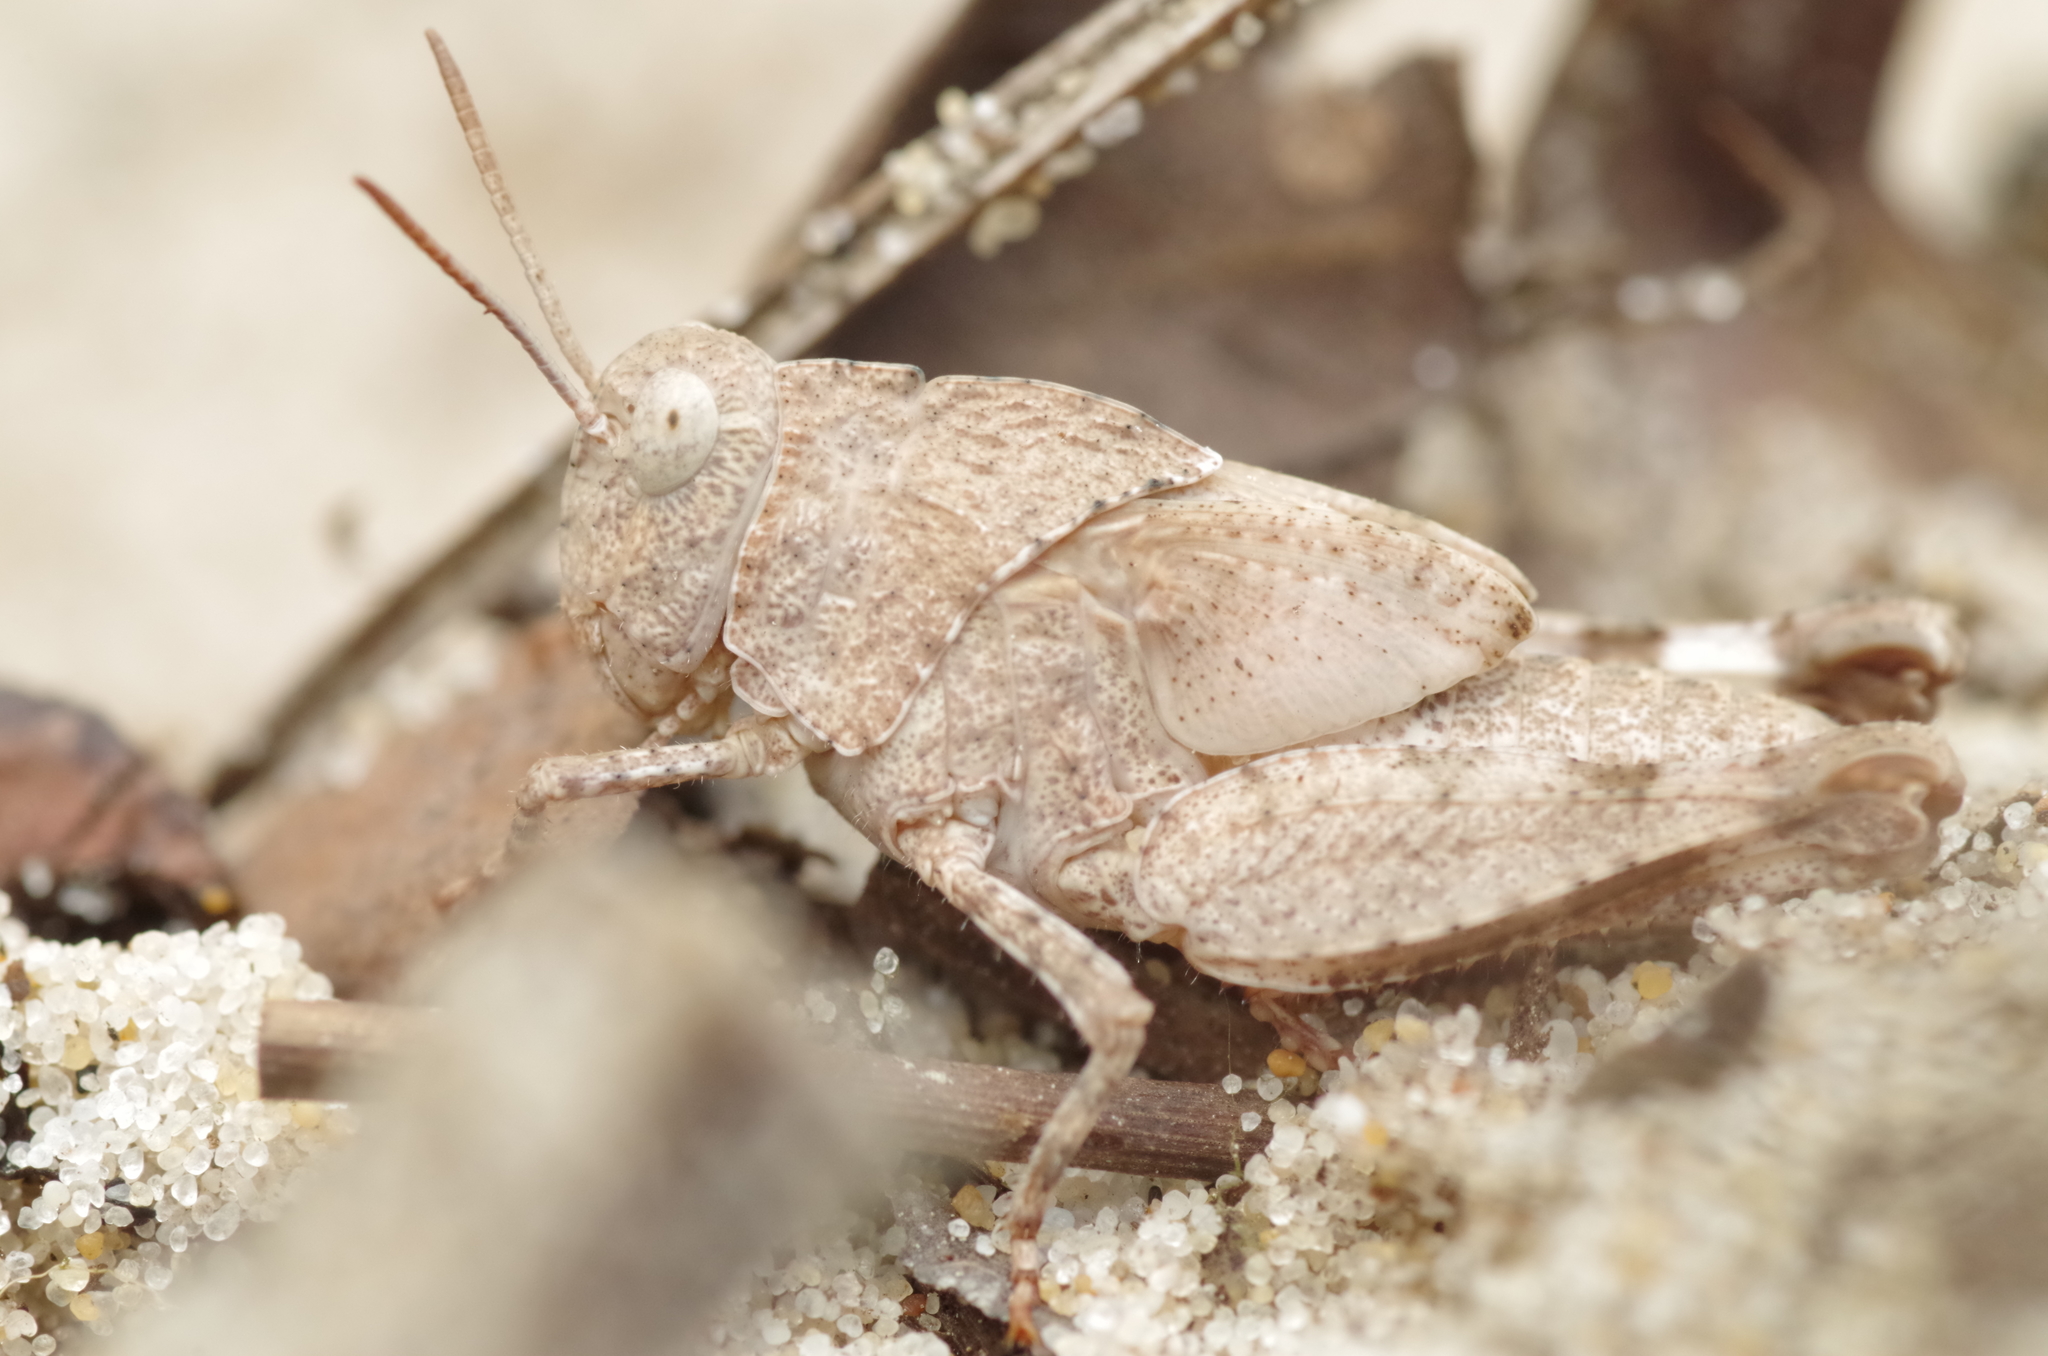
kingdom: Animalia
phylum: Arthropoda
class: Insecta
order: Orthoptera
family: Acrididae
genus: Oedipoda
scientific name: Oedipoda caerulescens
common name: Blue-winged grasshopper
